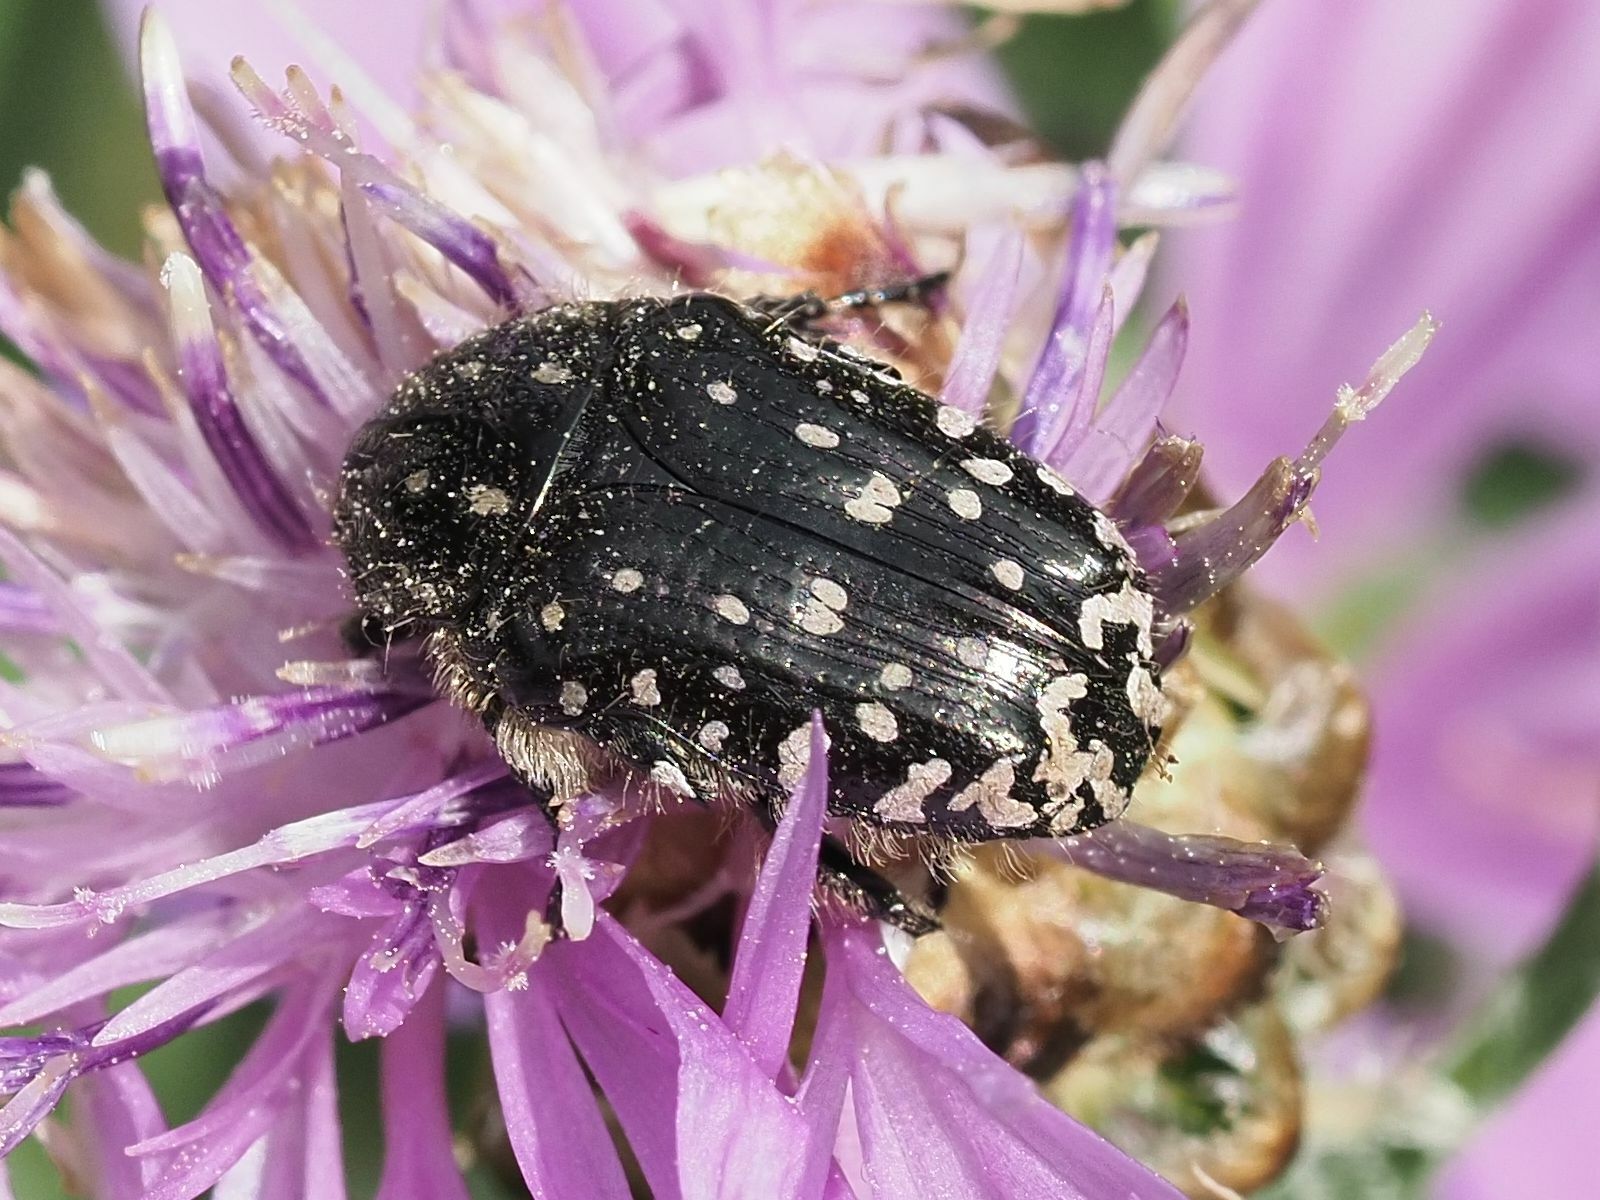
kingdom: Animalia
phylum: Arthropoda
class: Insecta
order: Coleoptera
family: Scarabaeidae
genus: Oxythyrea
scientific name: Oxythyrea funesta
